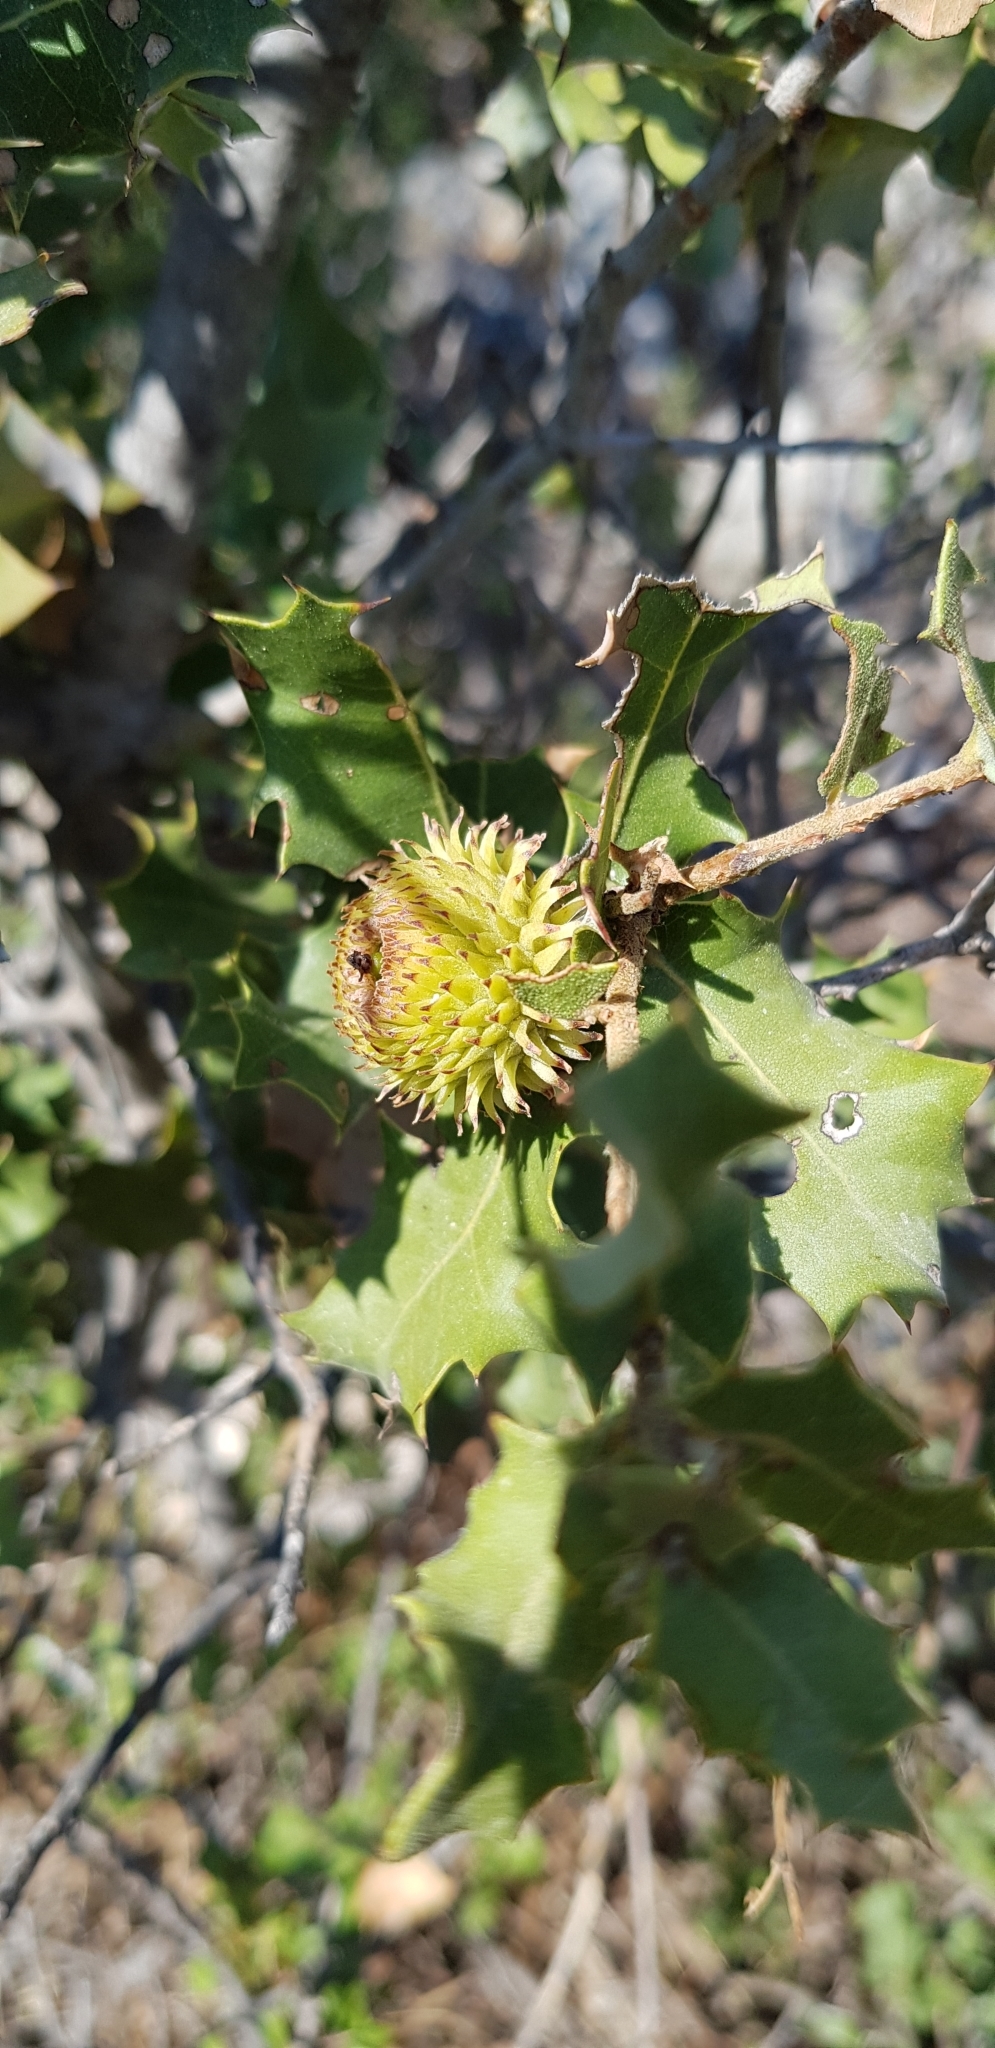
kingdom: Plantae
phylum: Tracheophyta
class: Magnoliopsida
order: Fagales
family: Fagaceae
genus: Quercus
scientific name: Quercus coccifera
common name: Kermes oak
